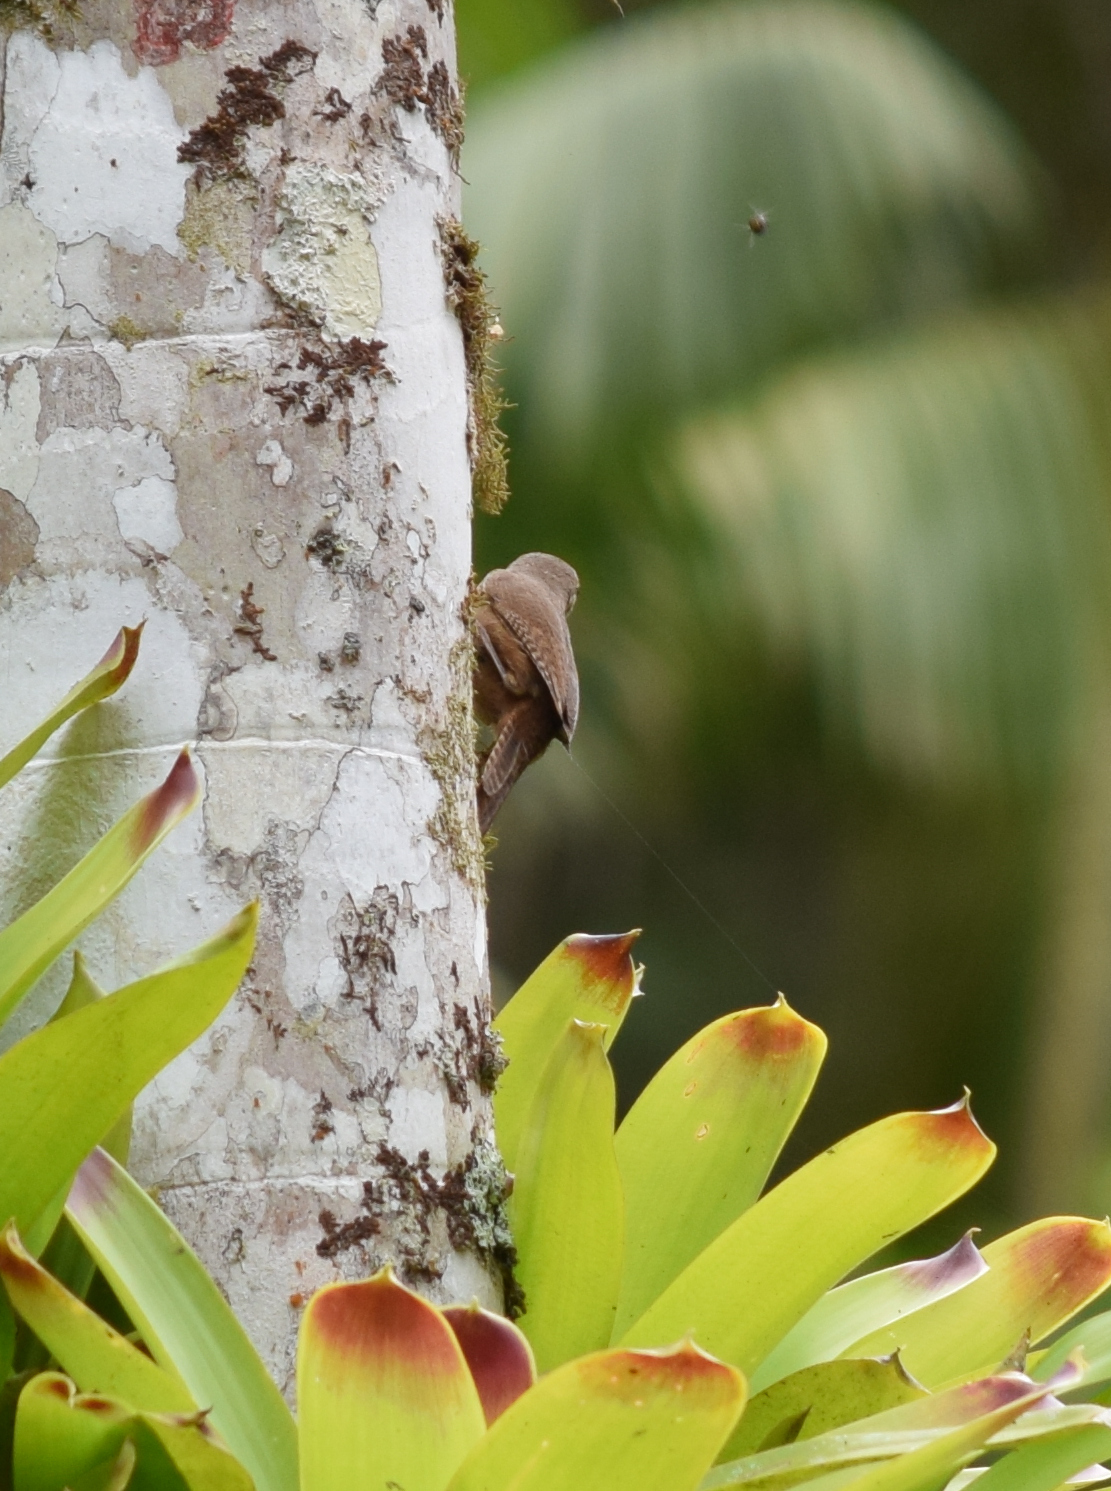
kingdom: Animalia
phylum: Chordata
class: Aves
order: Passeriformes
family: Troglodytidae
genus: Troglodytes
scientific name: Troglodytes aedon
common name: House wren
